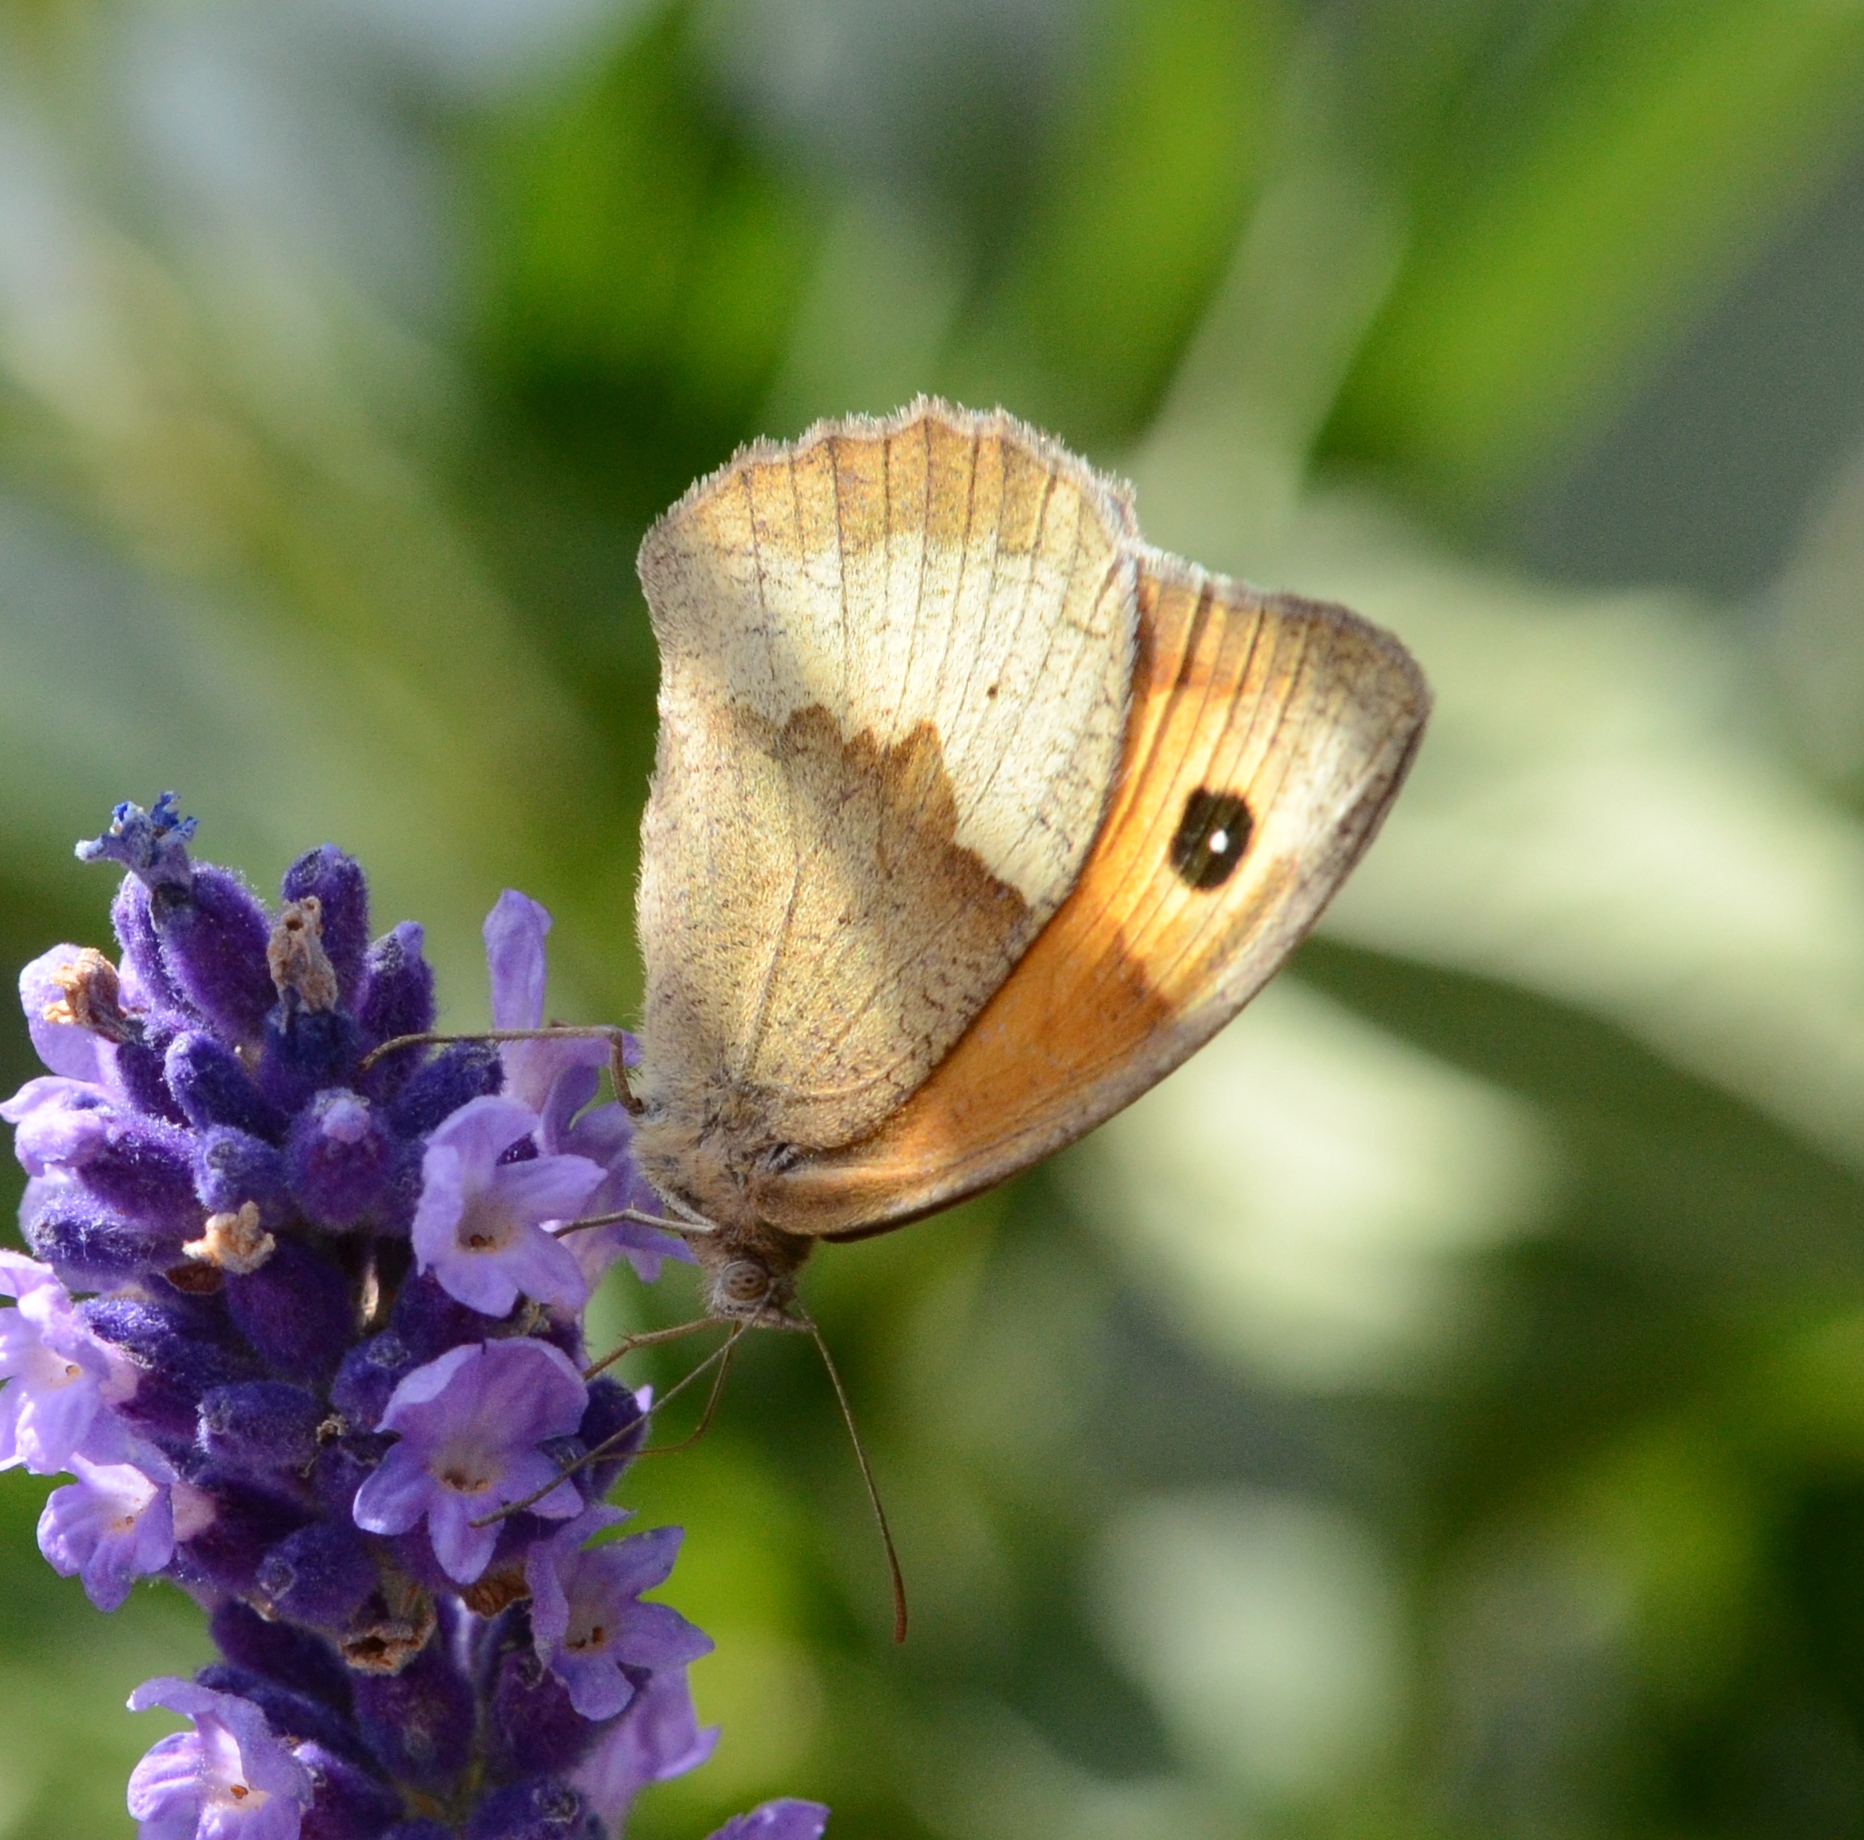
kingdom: Animalia
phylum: Arthropoda
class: Insecta
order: Lepidoptera
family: Nymphalidae
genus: Maniola
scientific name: Maniola jurtina
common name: Meadow brown
